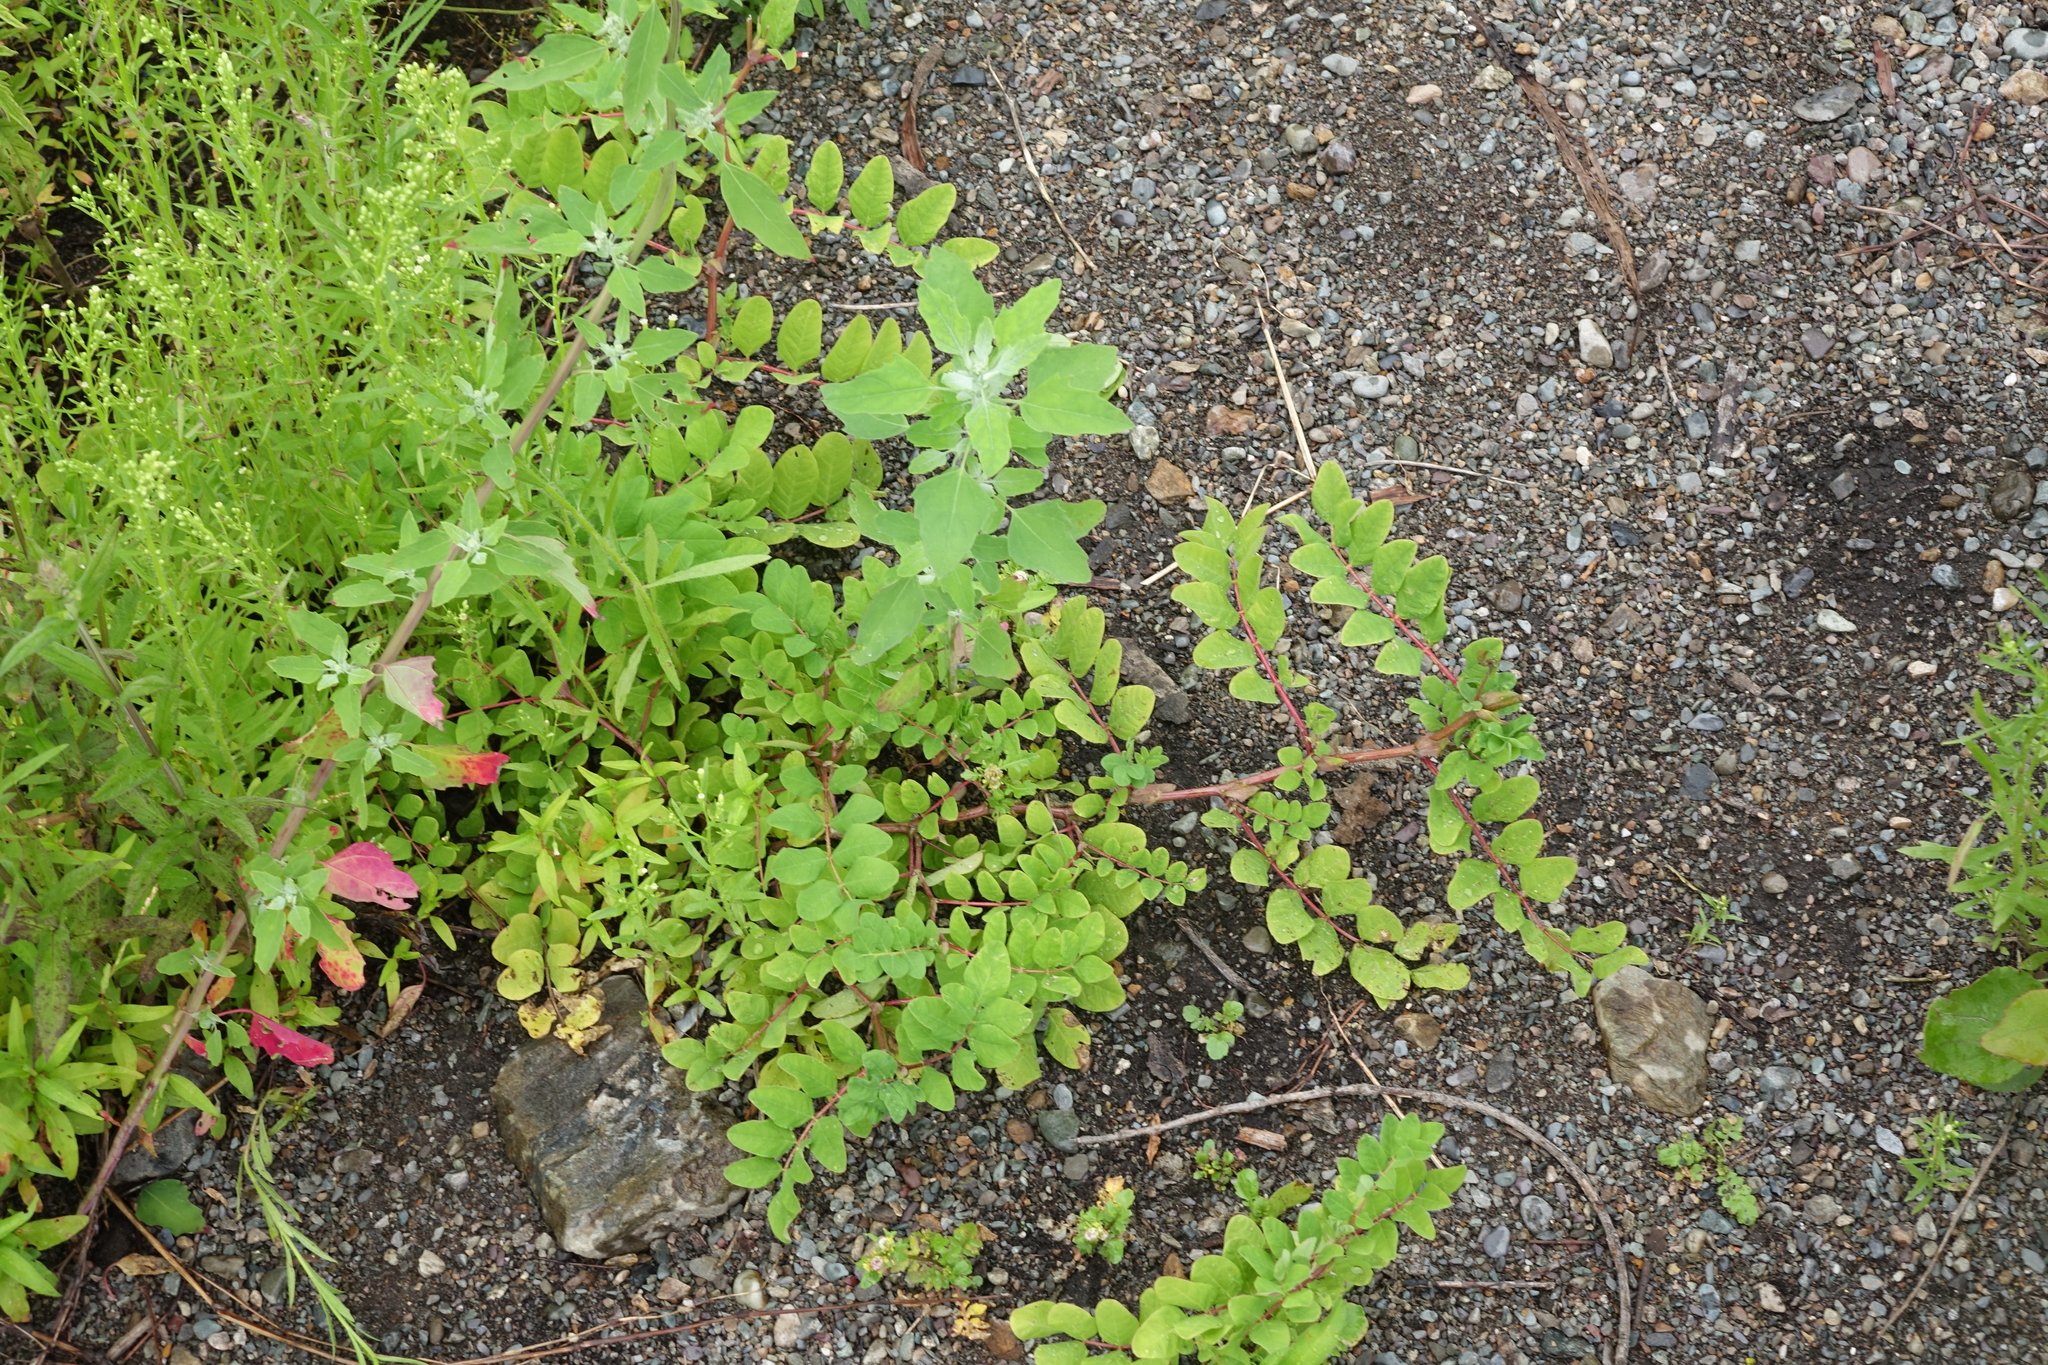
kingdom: Plantae
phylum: Tracheophyta
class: Magnoliopsida
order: Fabales
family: Fabaceae
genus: Astragalus
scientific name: Astragalus glycyphyllos
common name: Wild liquorice
